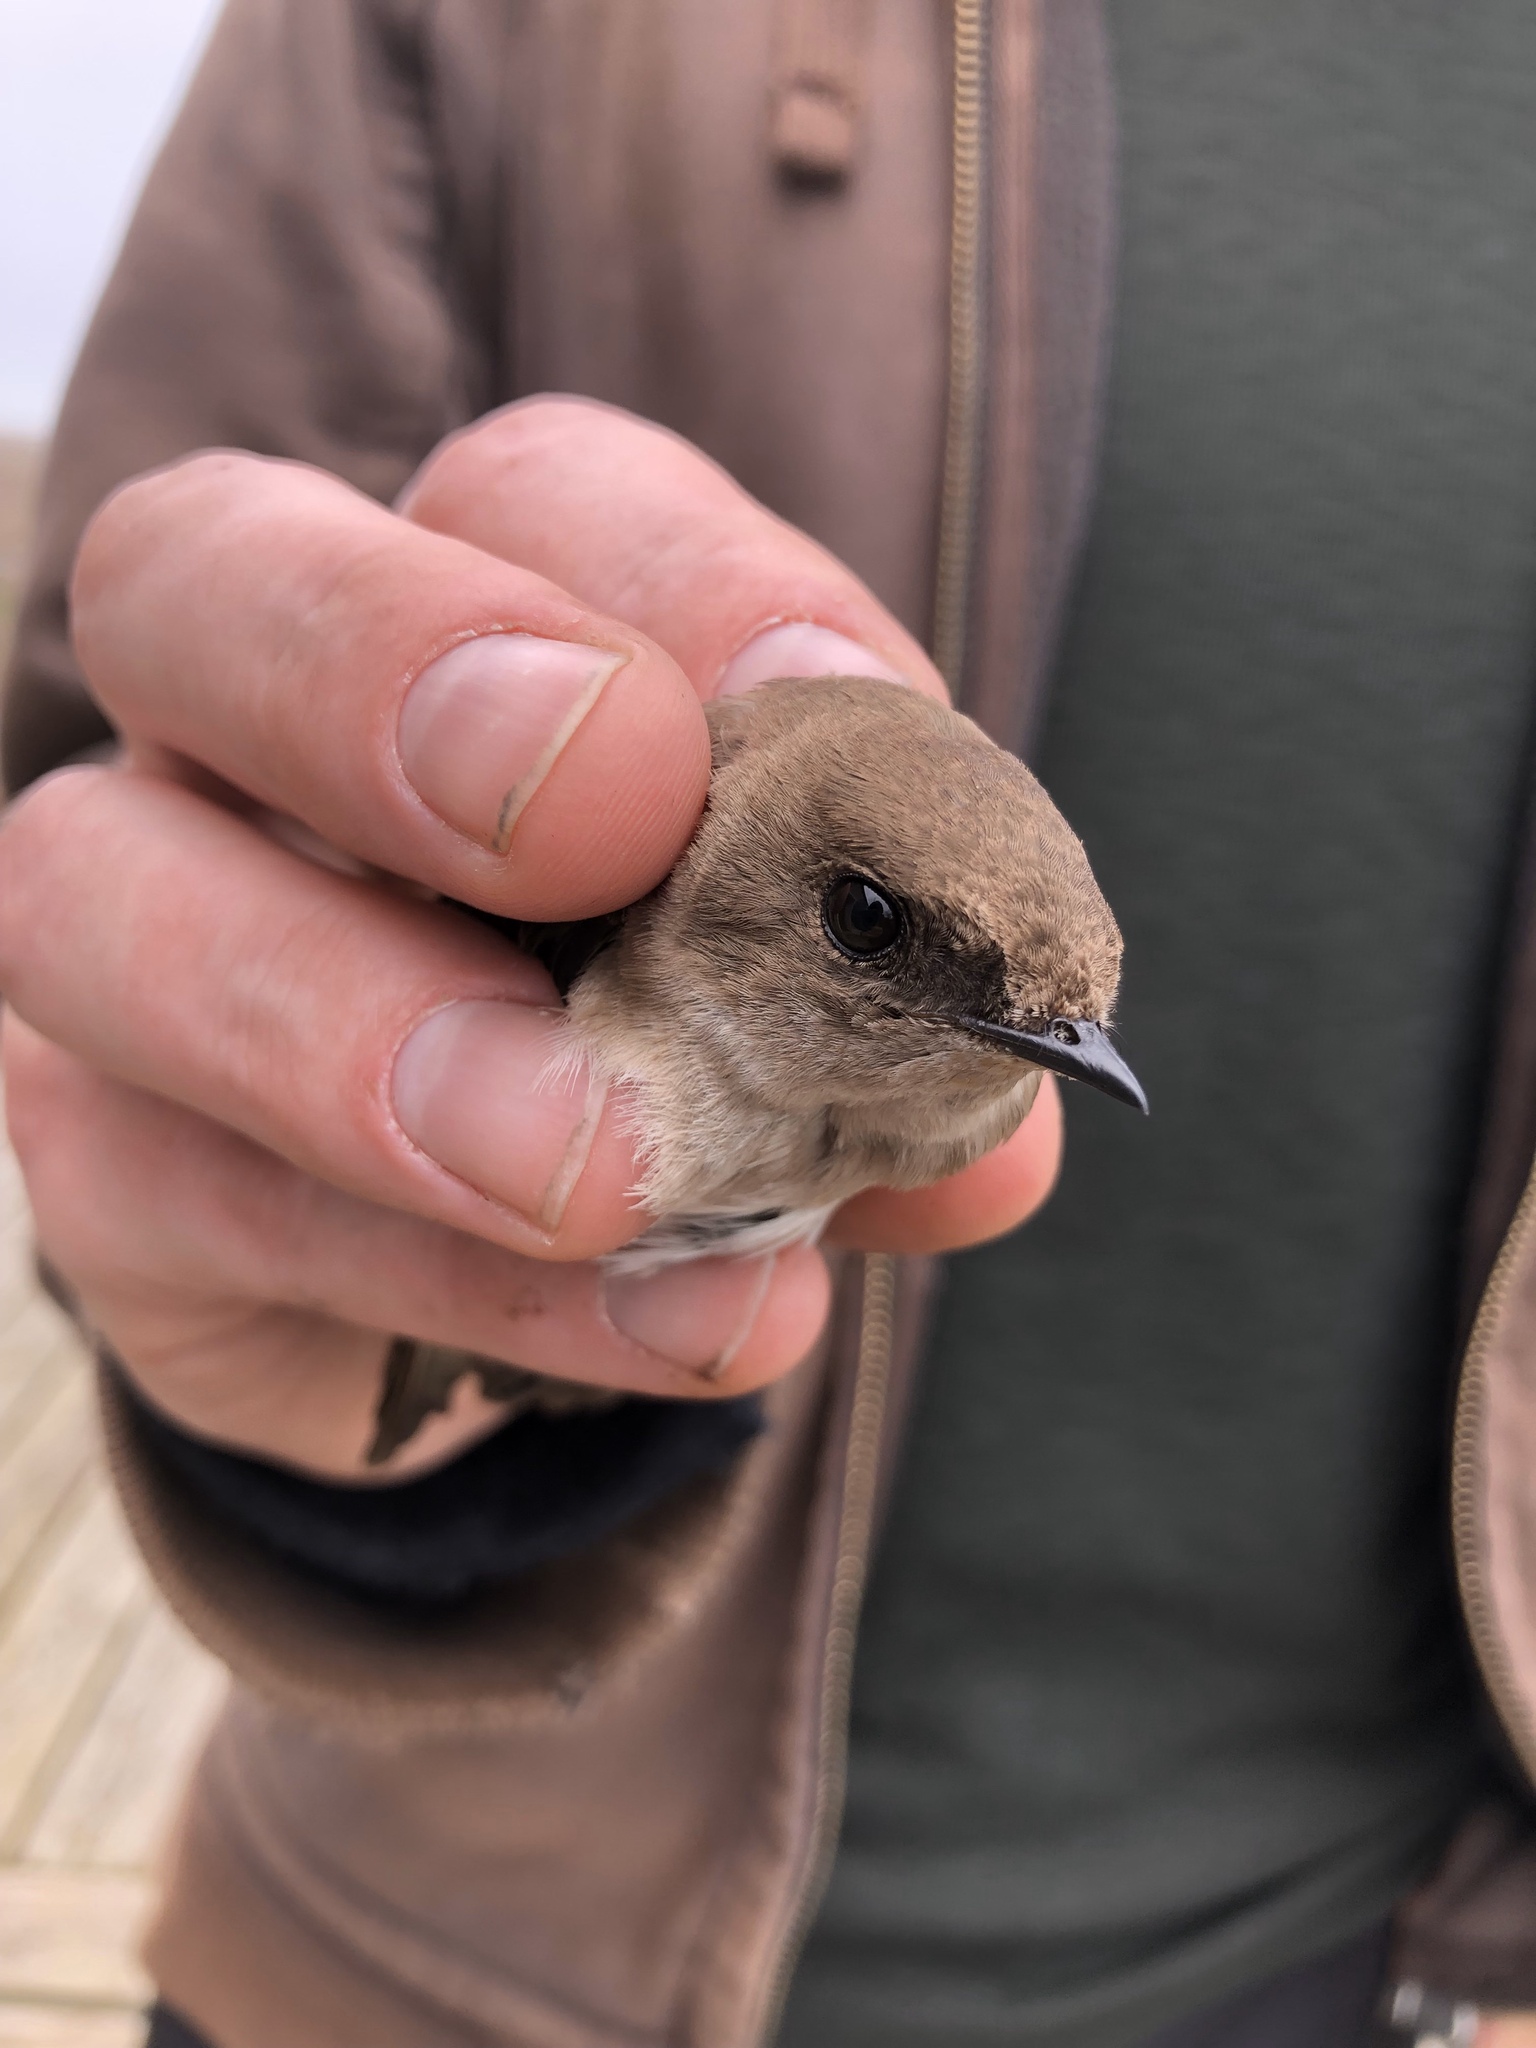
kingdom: Animalia
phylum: Chordata
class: Aves
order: Passeriformes
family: Hirundinidae
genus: Stelgidopteryx
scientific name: Stelgidopteryx serripennis
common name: Northern rough-winged swallow
